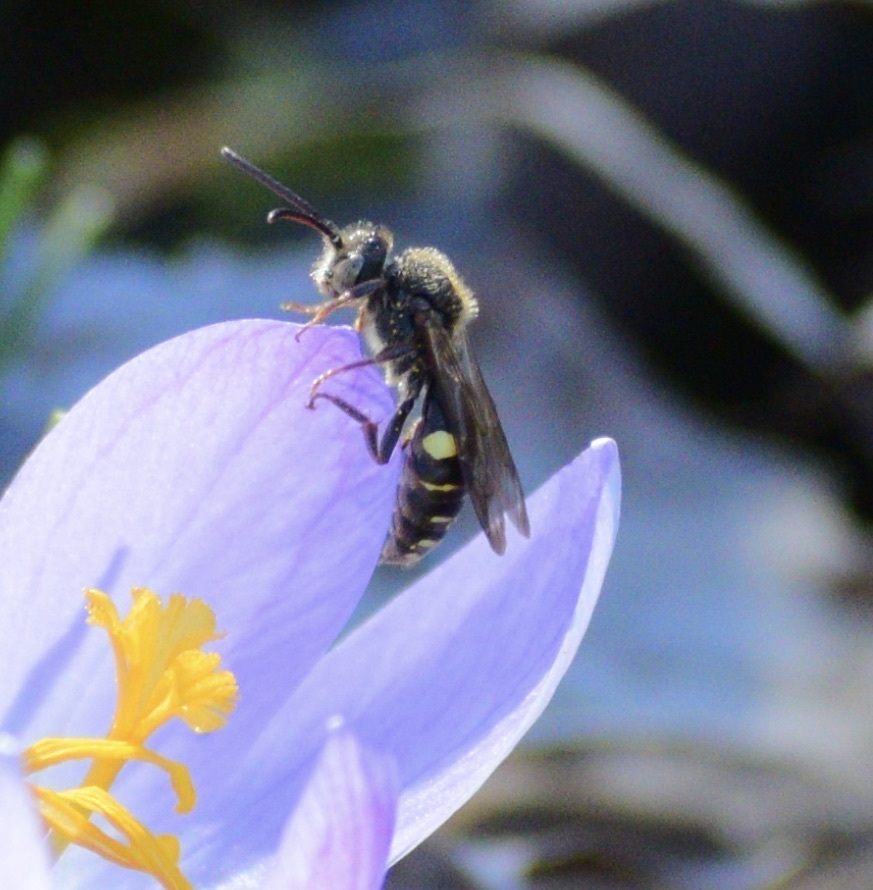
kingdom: Animalia
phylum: Arthropoda
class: Insecta
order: Hymenoptera
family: Apidae
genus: Nomada
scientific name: Nomada gracilis
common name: Slender cuckoo nomad bee
